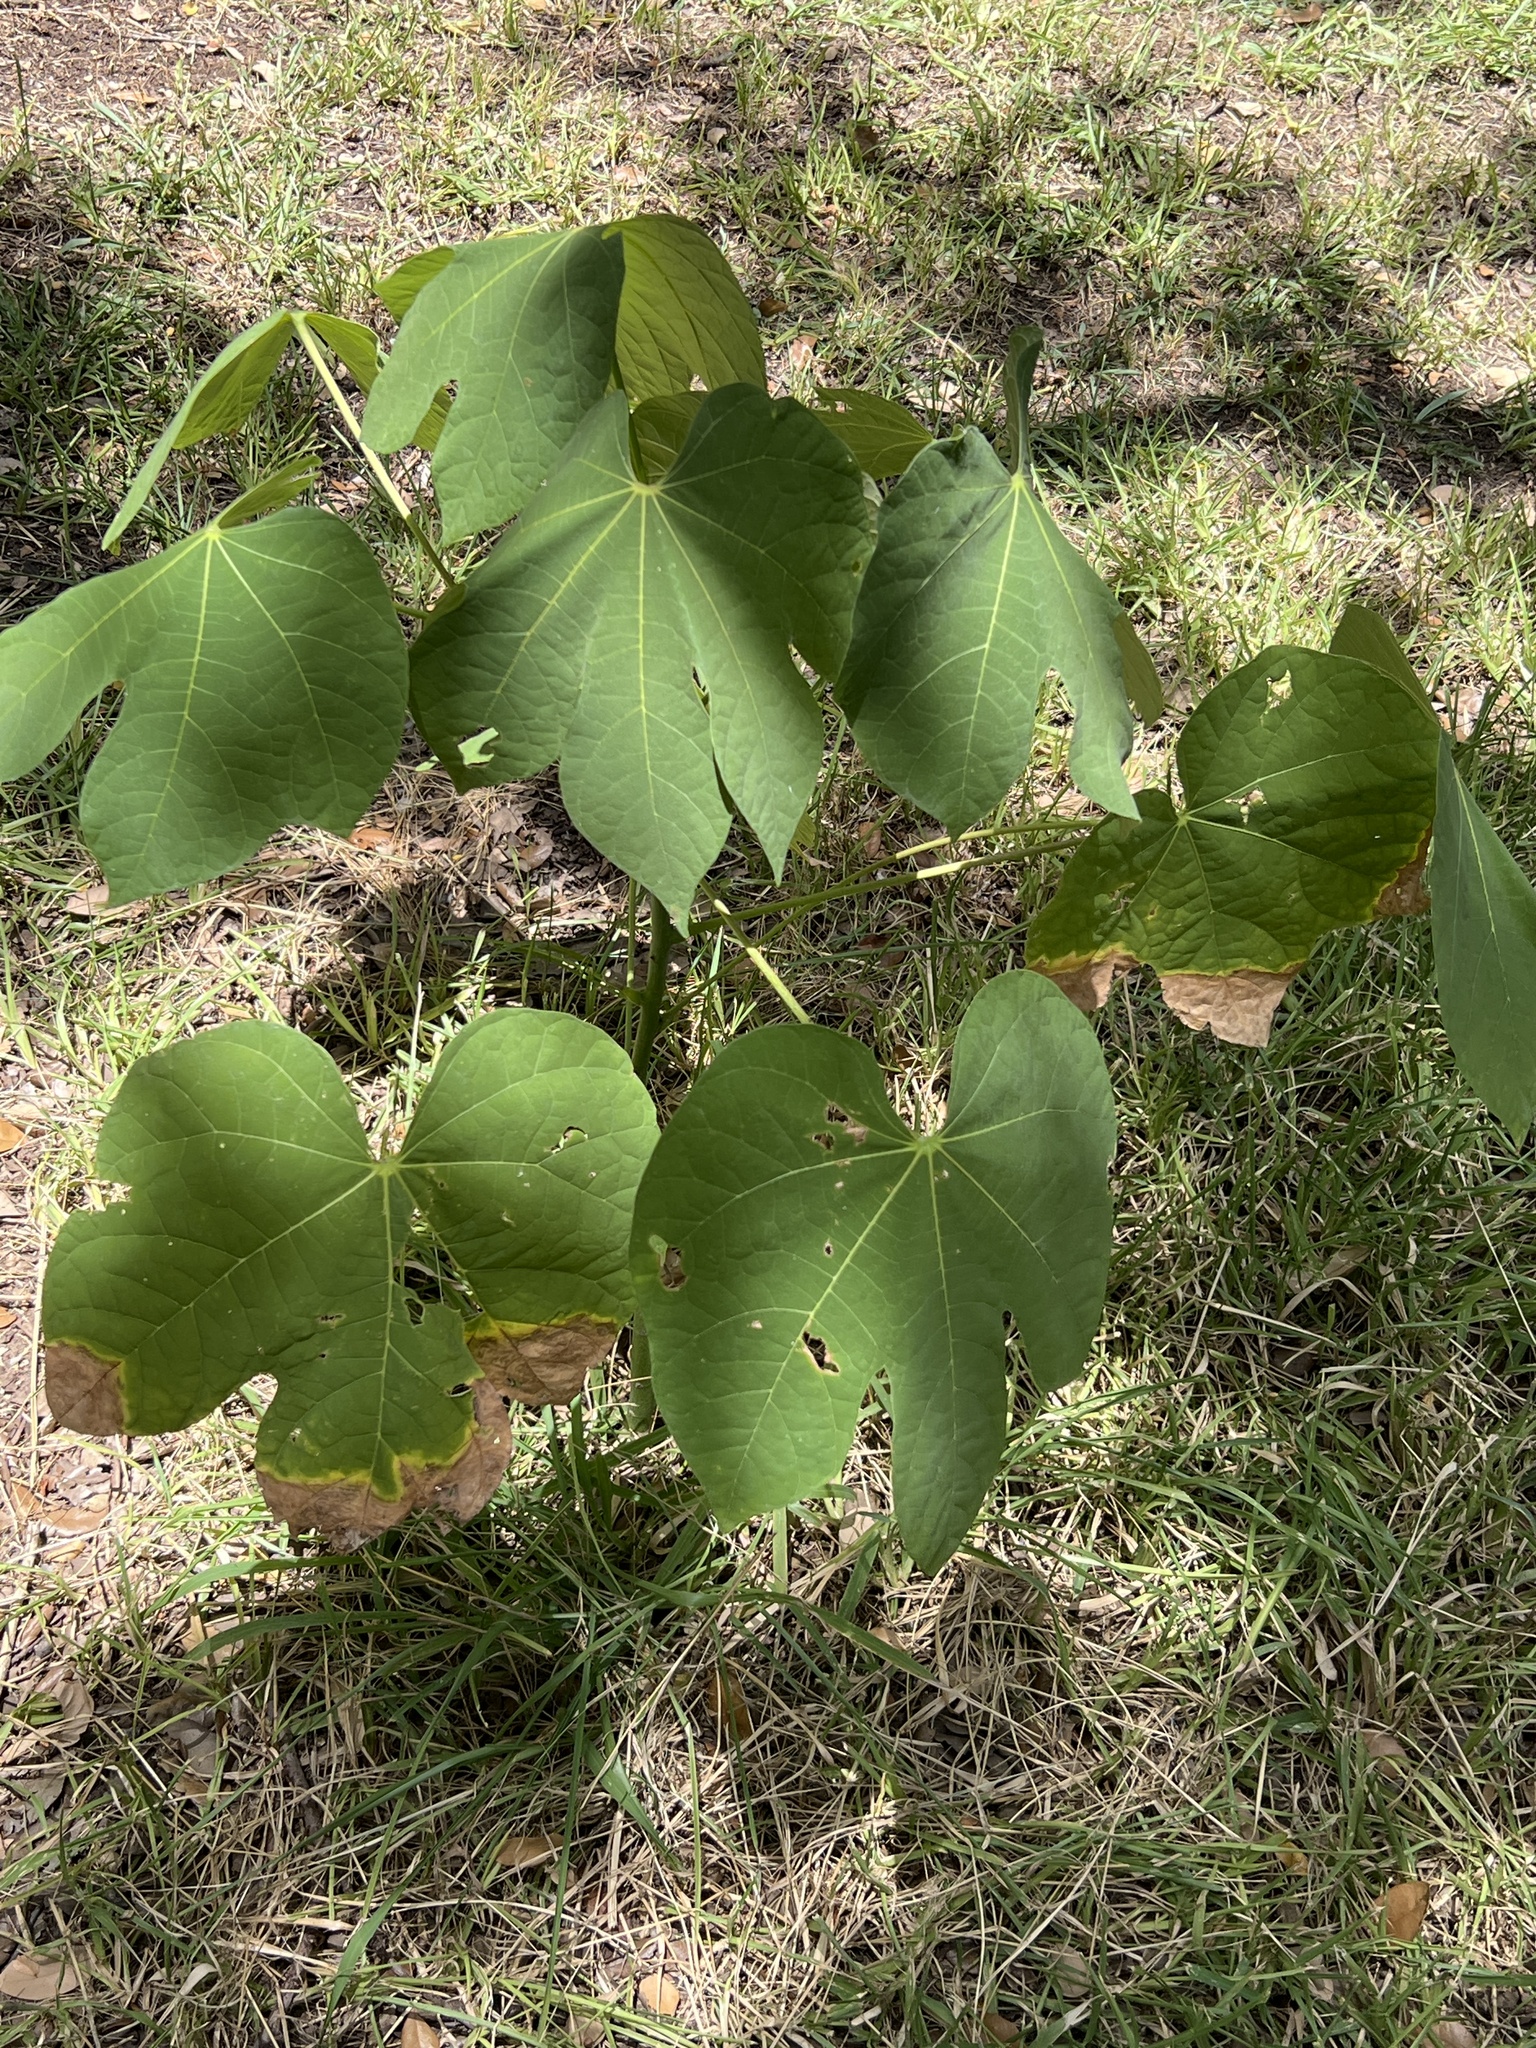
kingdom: Plantae
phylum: Tracheophyta
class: Magnoliopsida
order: Malvales
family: Malvaceae
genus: Firmiana
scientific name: Firmiana simplex
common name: Chinese parasoltree
